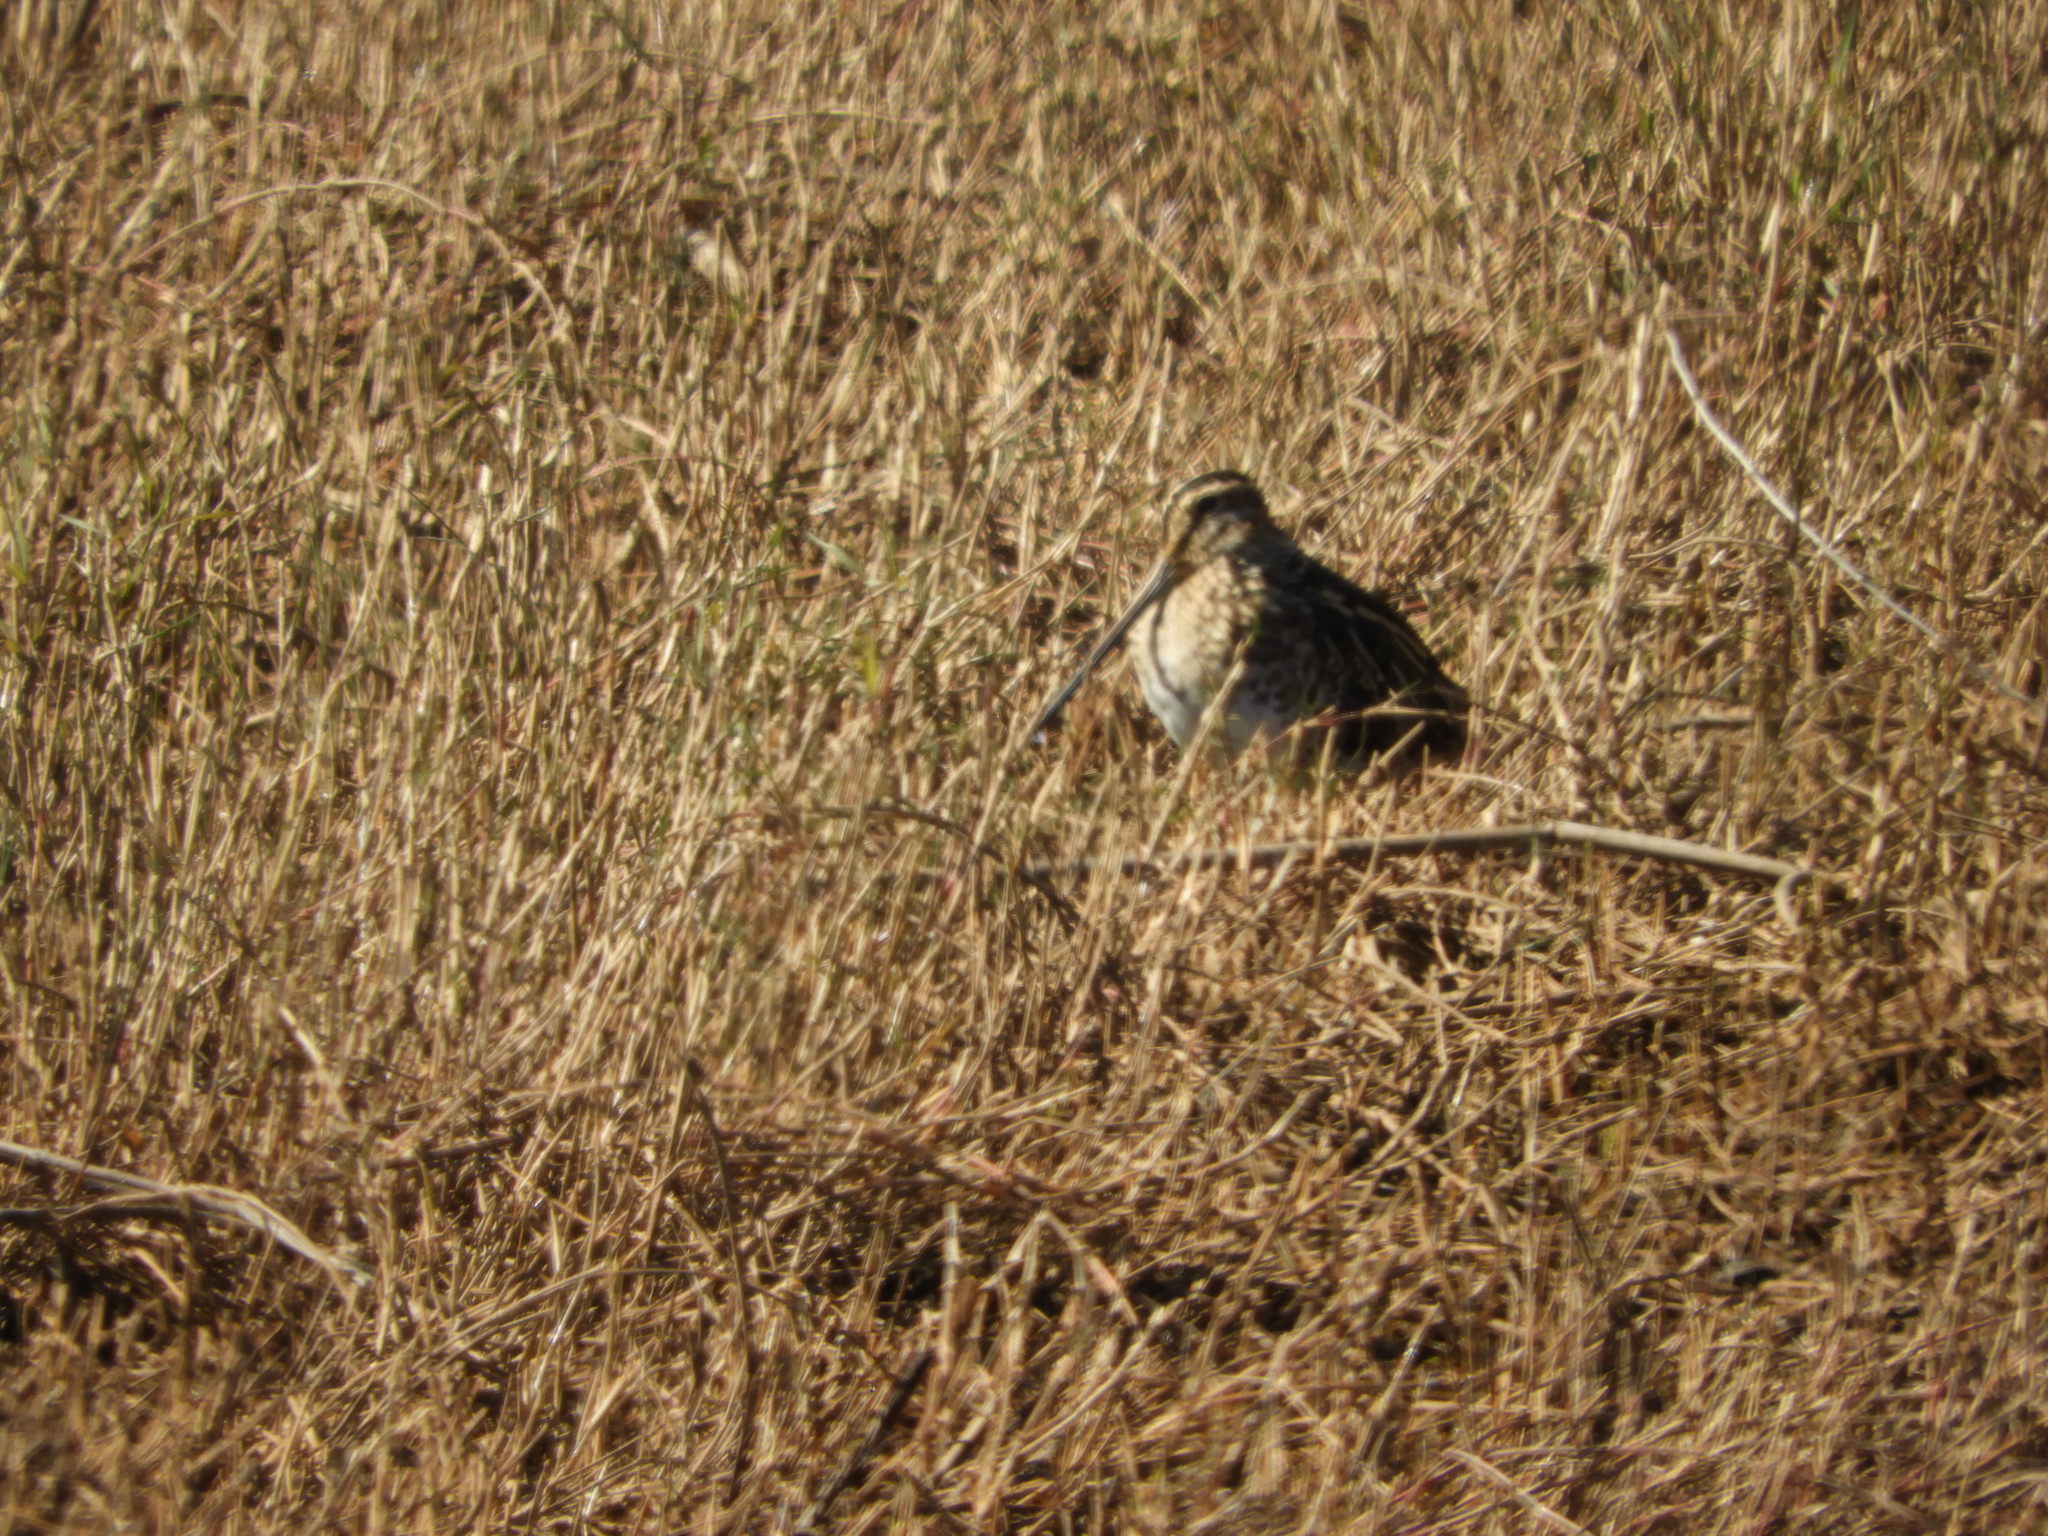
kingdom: Animalia
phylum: Chordata
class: Aves
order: Charadriiformes
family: Scolopacidae
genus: Gallinago
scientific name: Gallinago delicata
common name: Wilson's snipe
